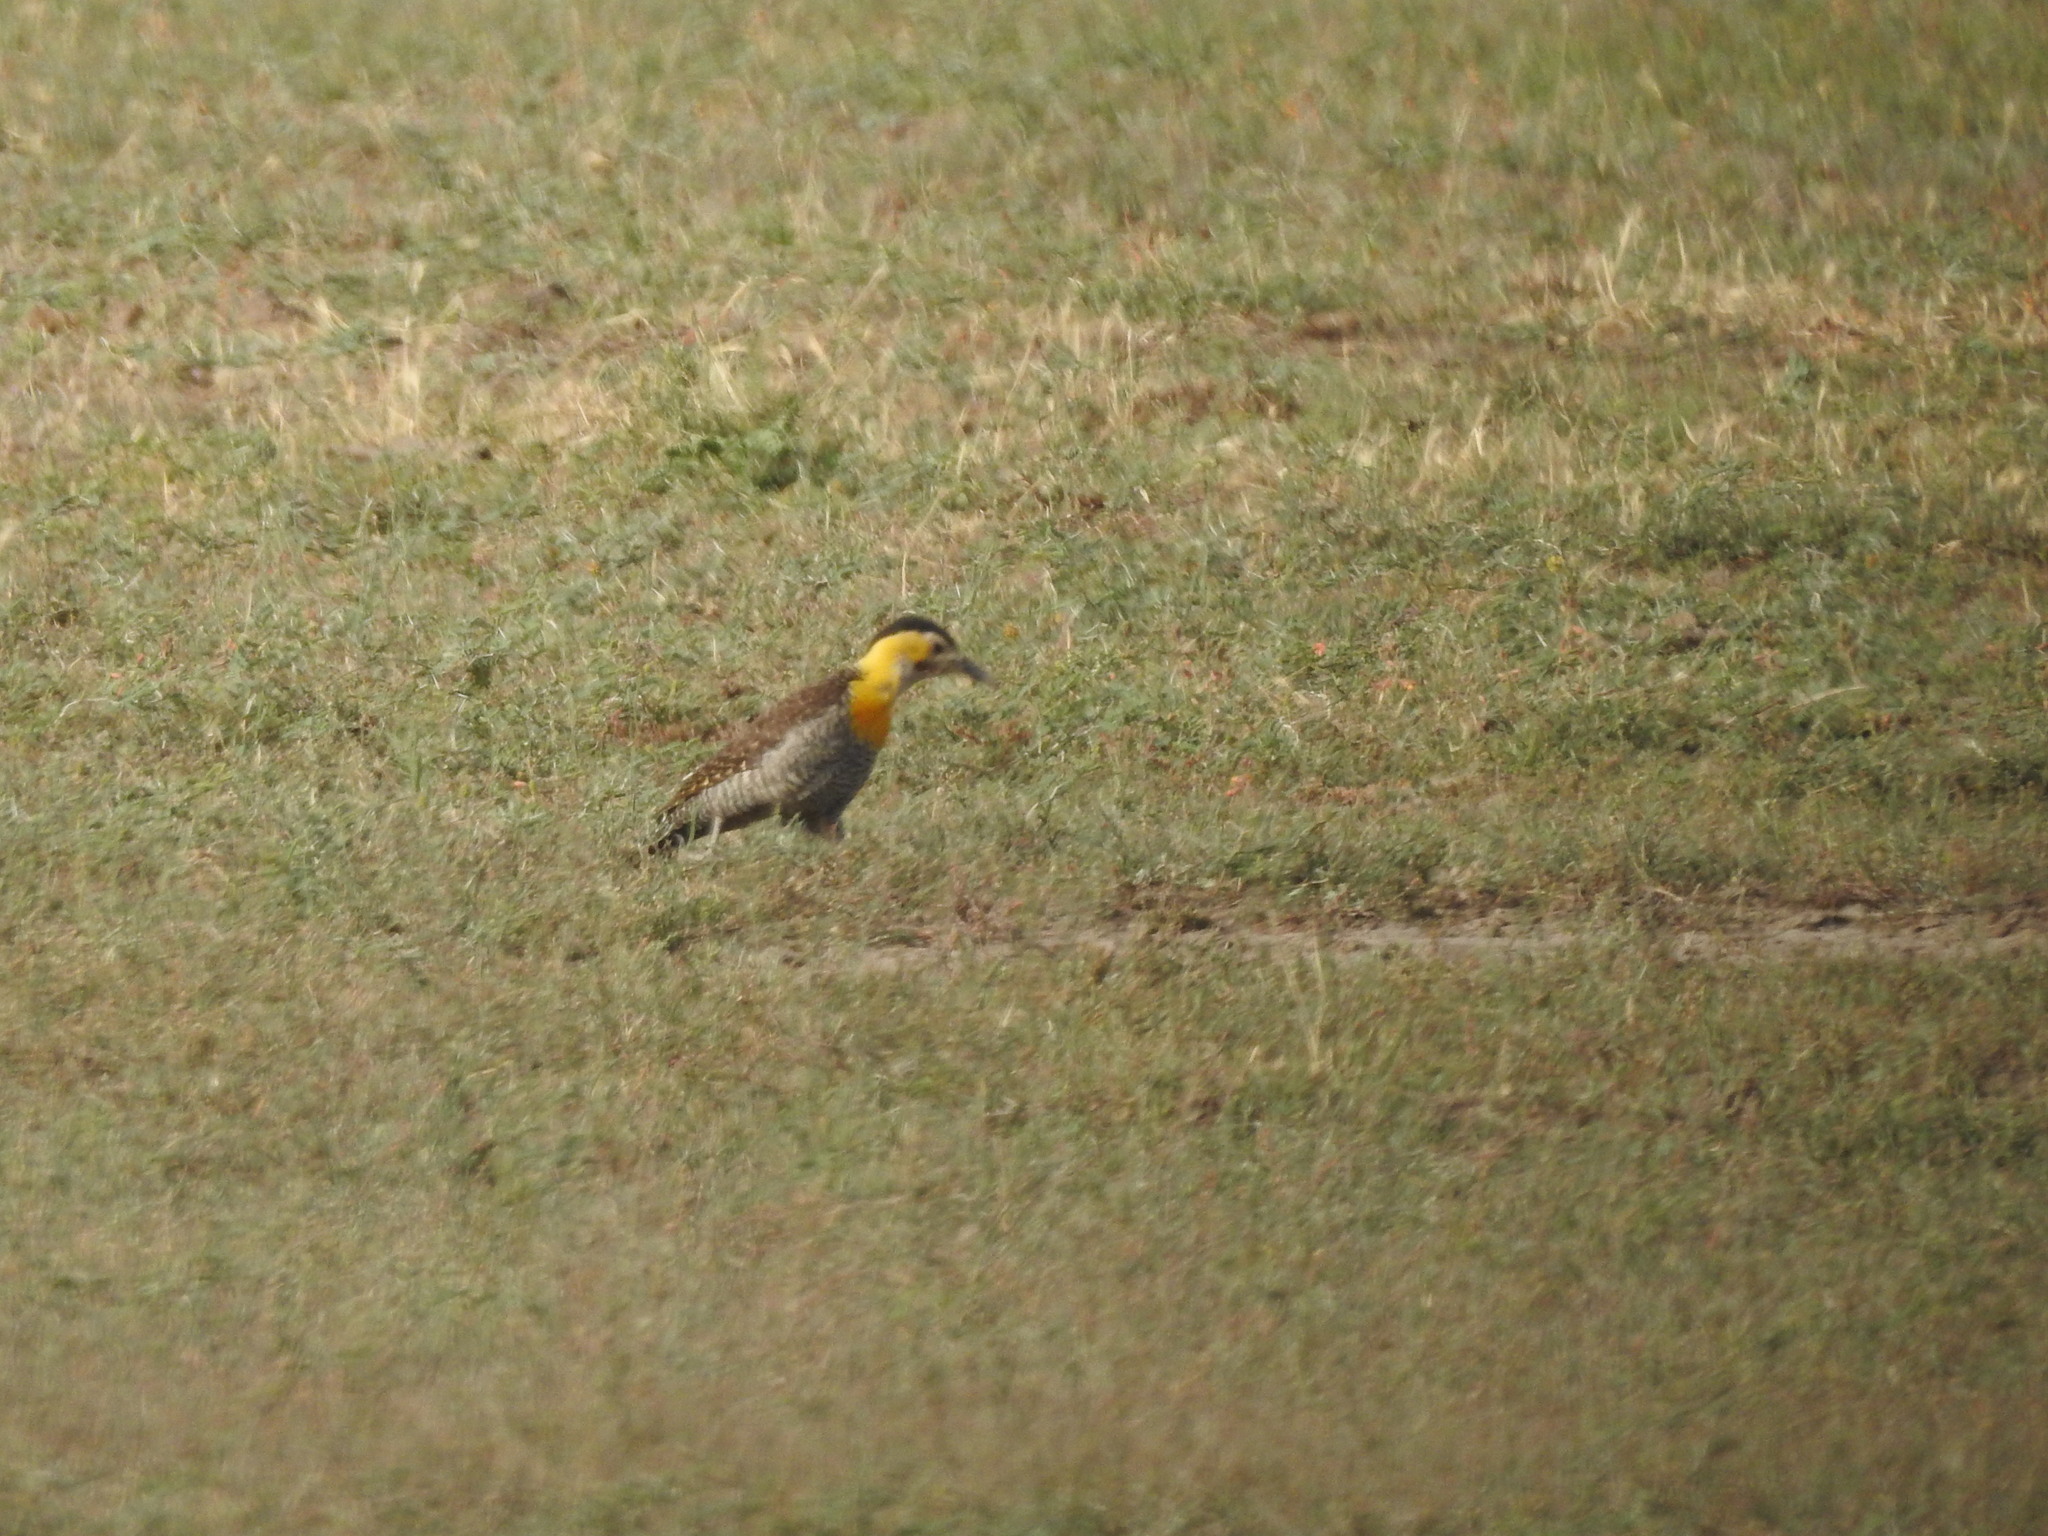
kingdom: Animalia
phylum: Chordata
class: Aves
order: Piciformes
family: Picidae
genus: Colaptes
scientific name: Colaptes campestris
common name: Campo flicker
